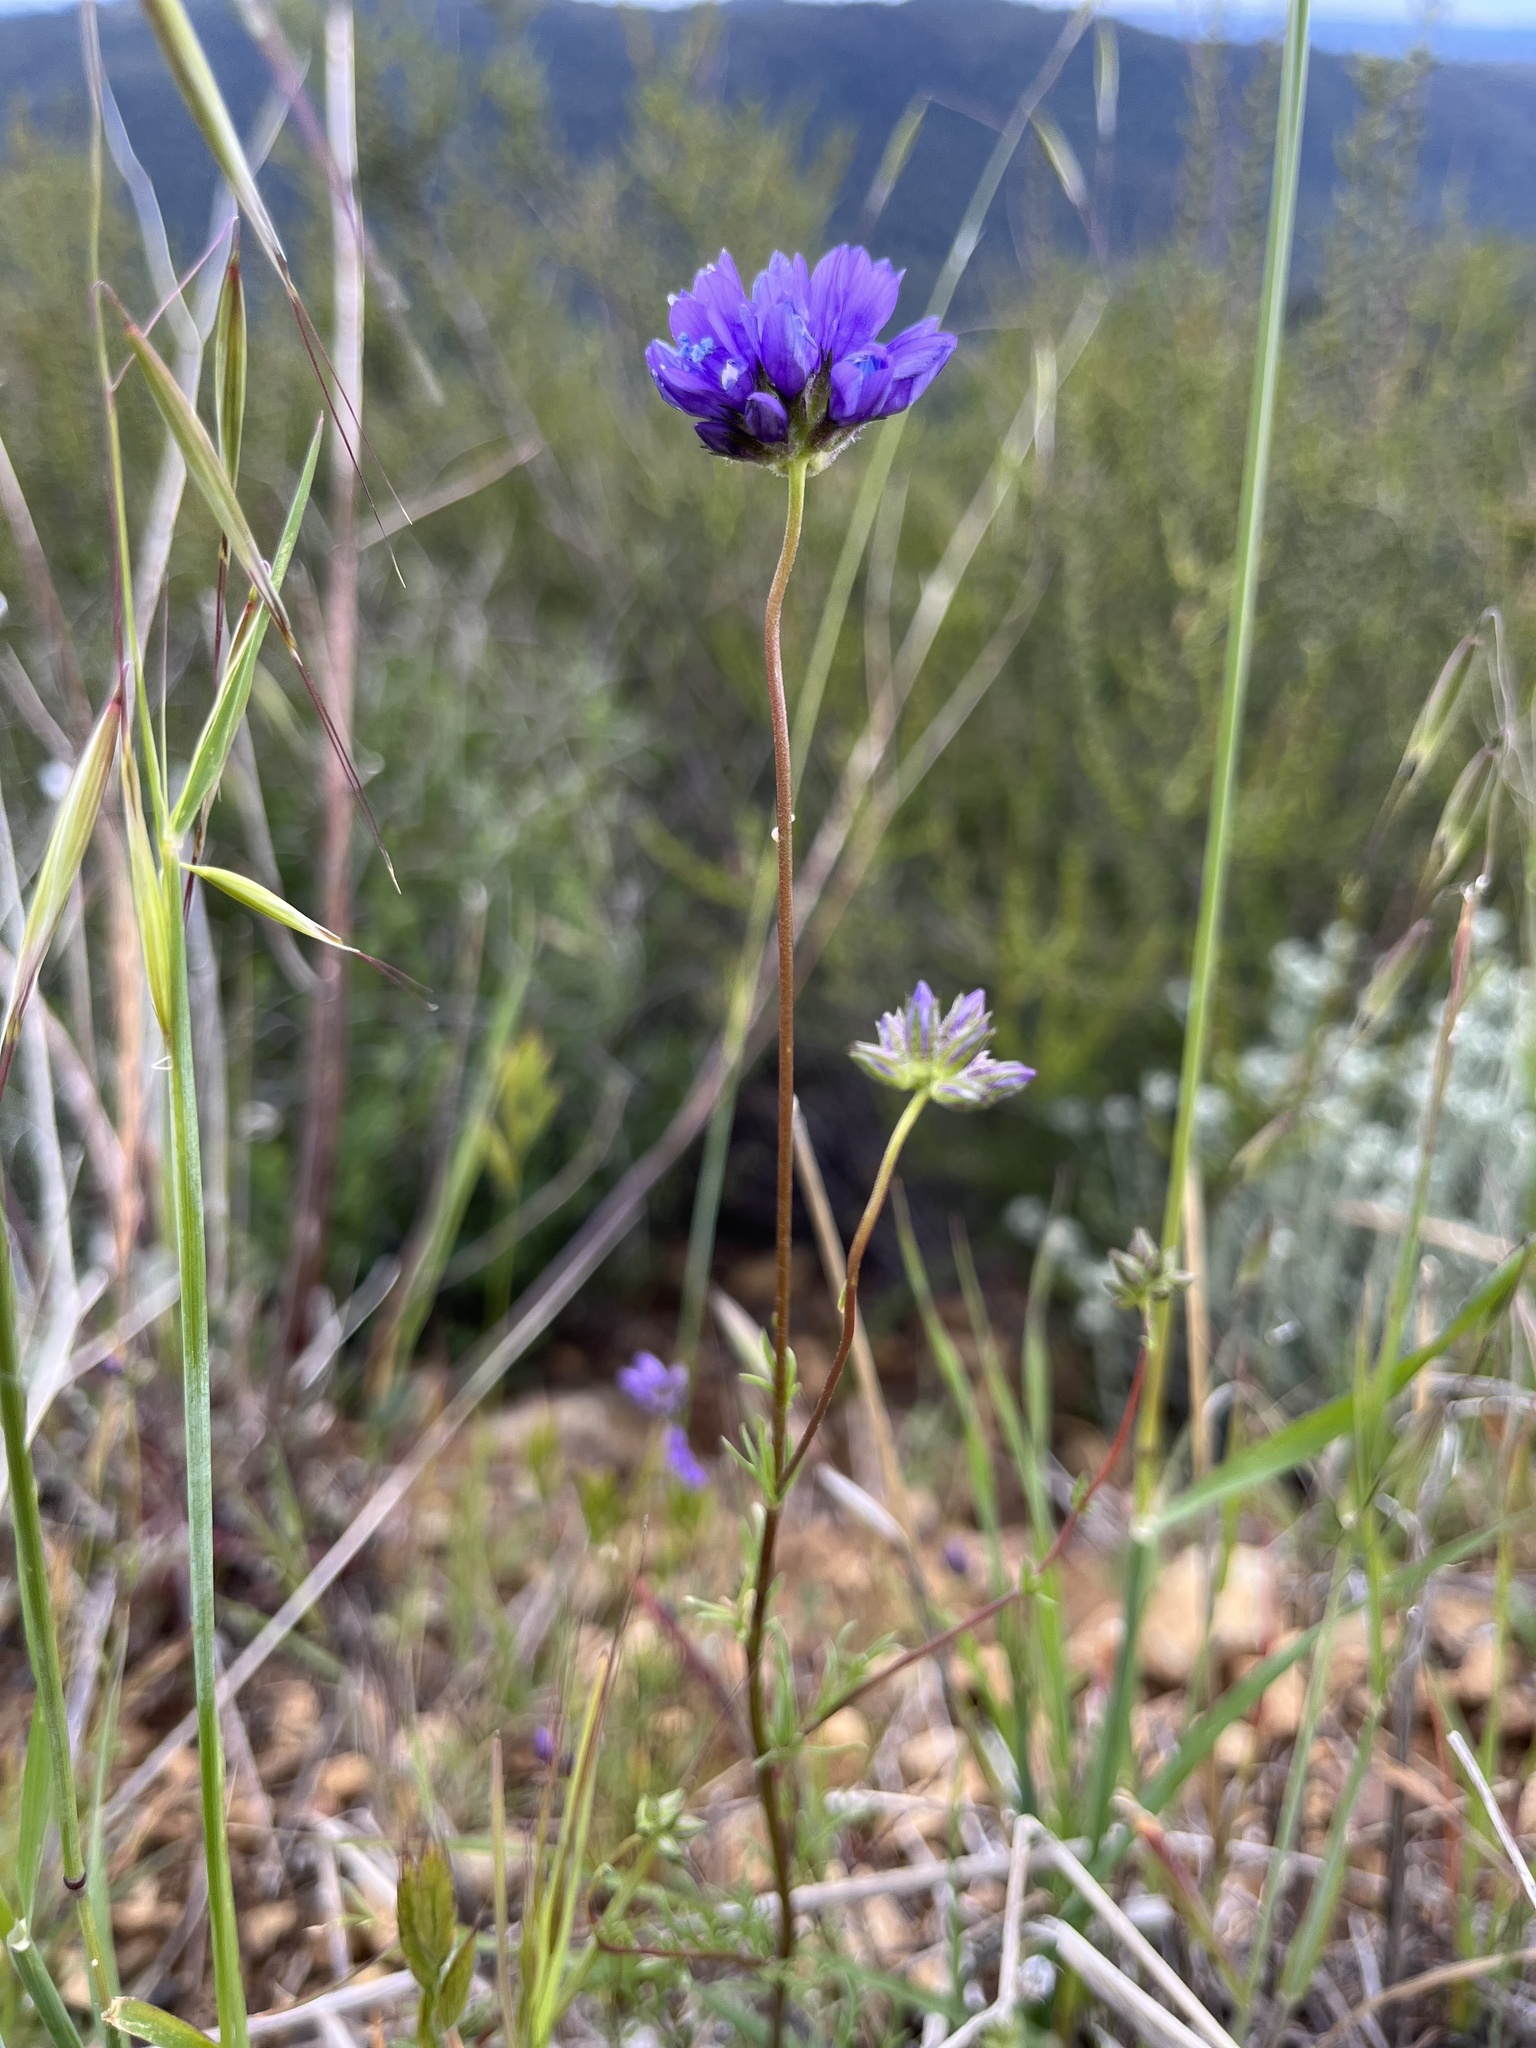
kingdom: Plantae
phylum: Tracheophyta
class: Magnoliopsida
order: Ericales
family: Polemoniaceae
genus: Gilia
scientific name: Gilia achilleifolia
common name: California gily-flower
